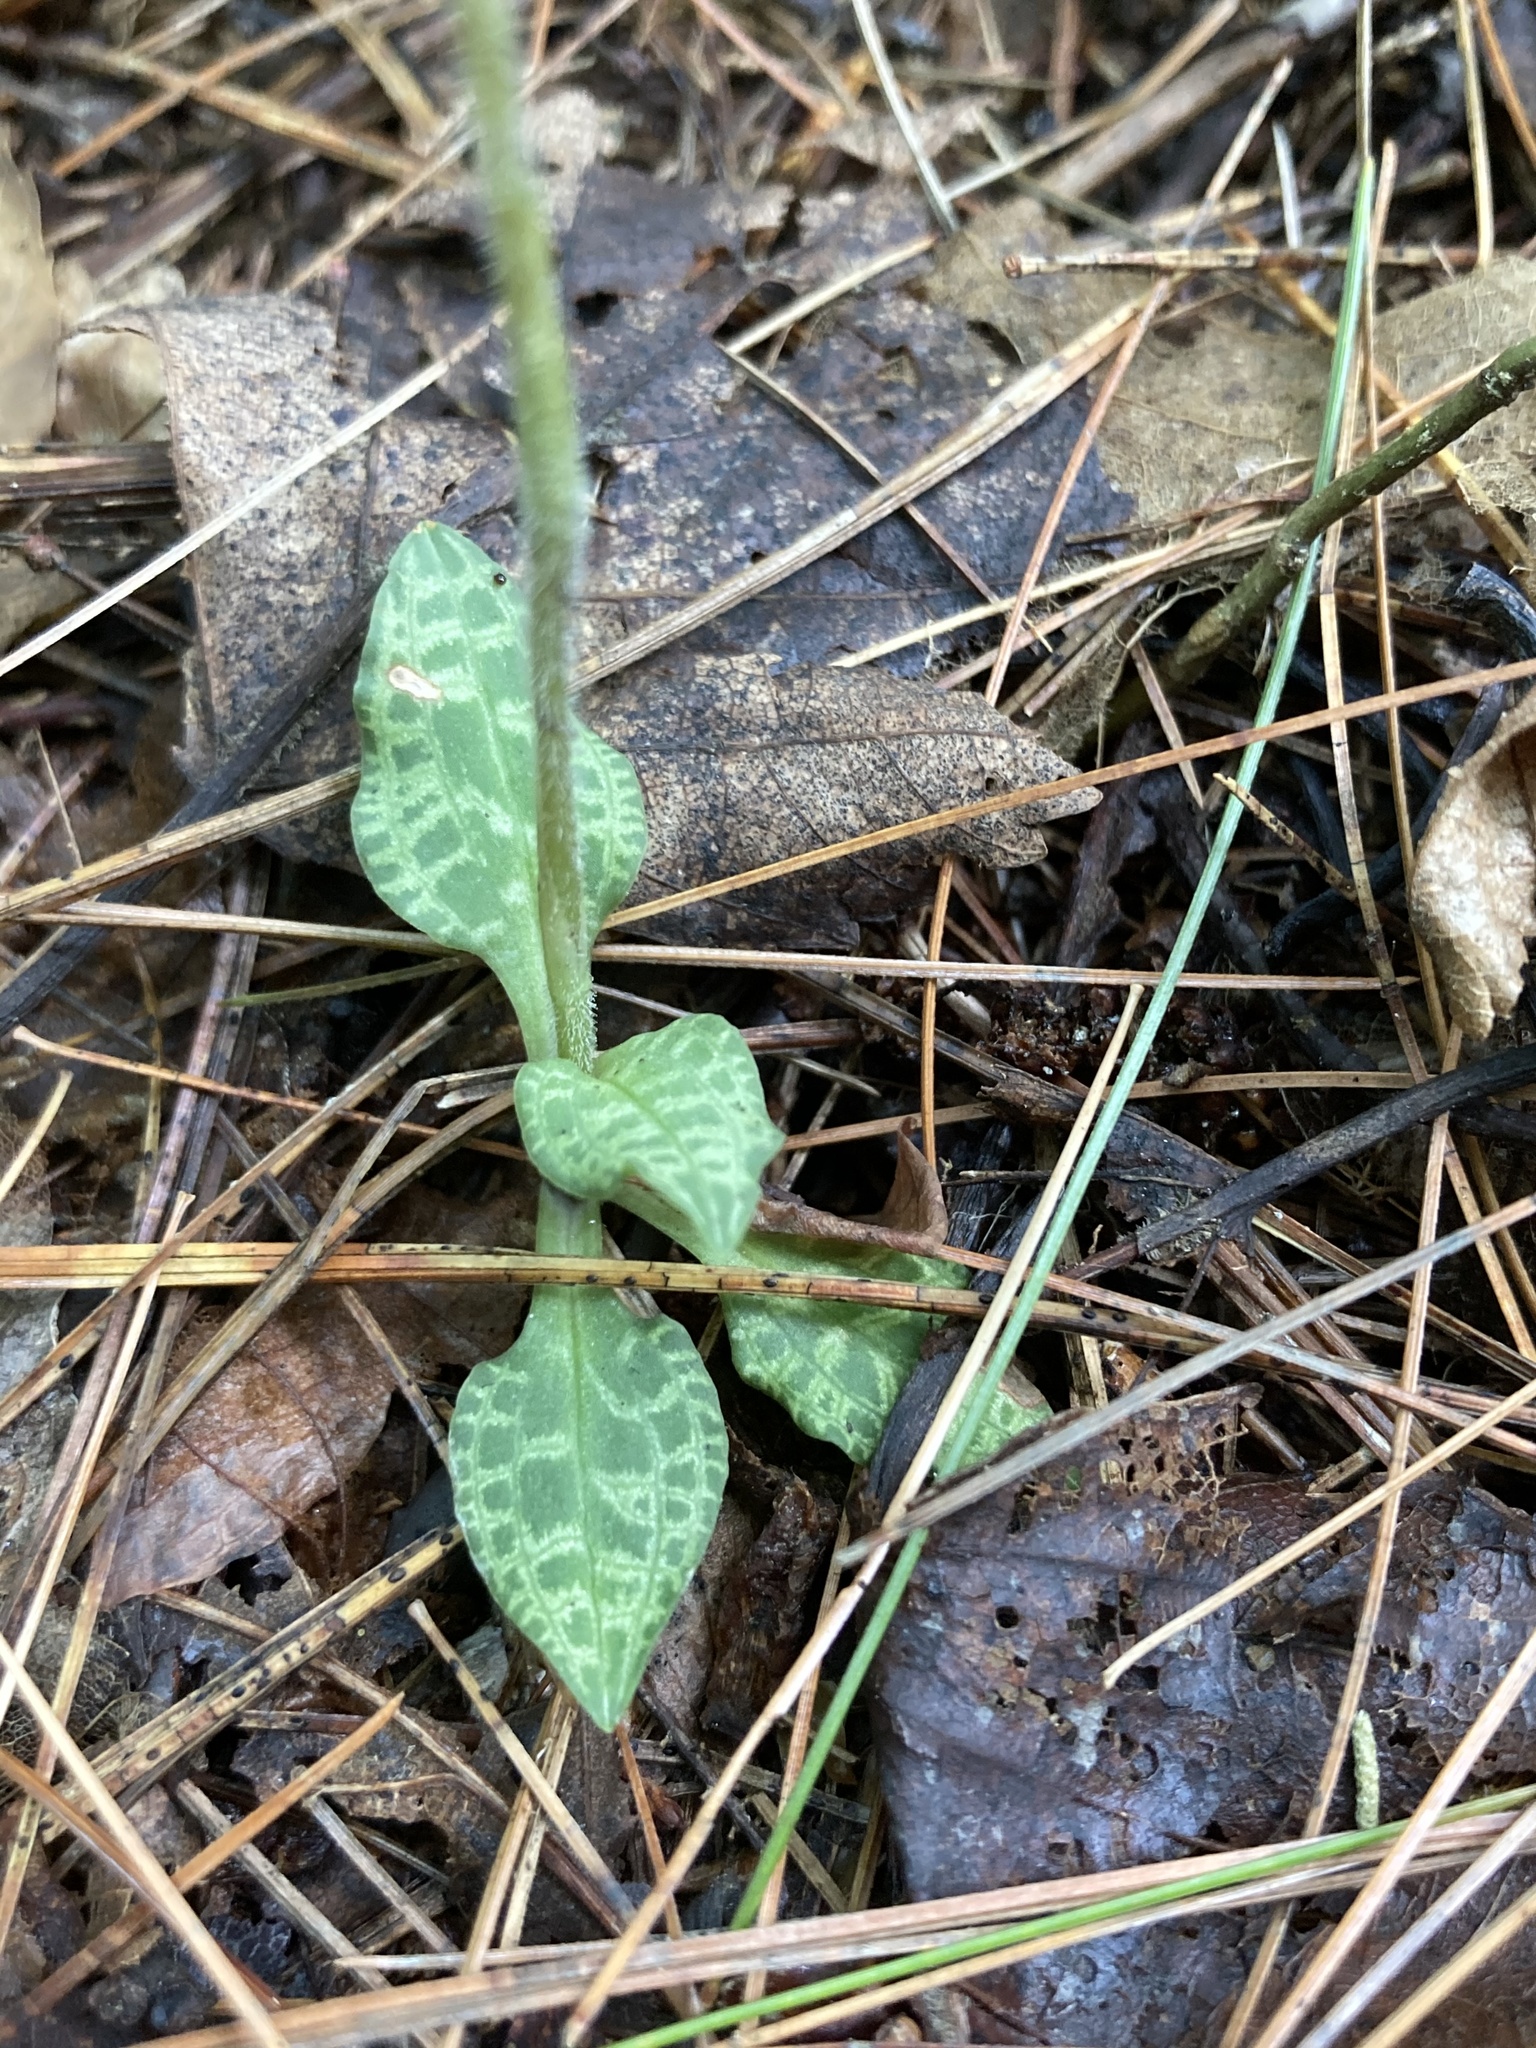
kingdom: Plantae
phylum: Tracheophyta
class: Liliopsida
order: Asparagales
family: Orchidaceae
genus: Goodyera
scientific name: Goodyera tesselata
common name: Checkered rattlesnake-plantain
